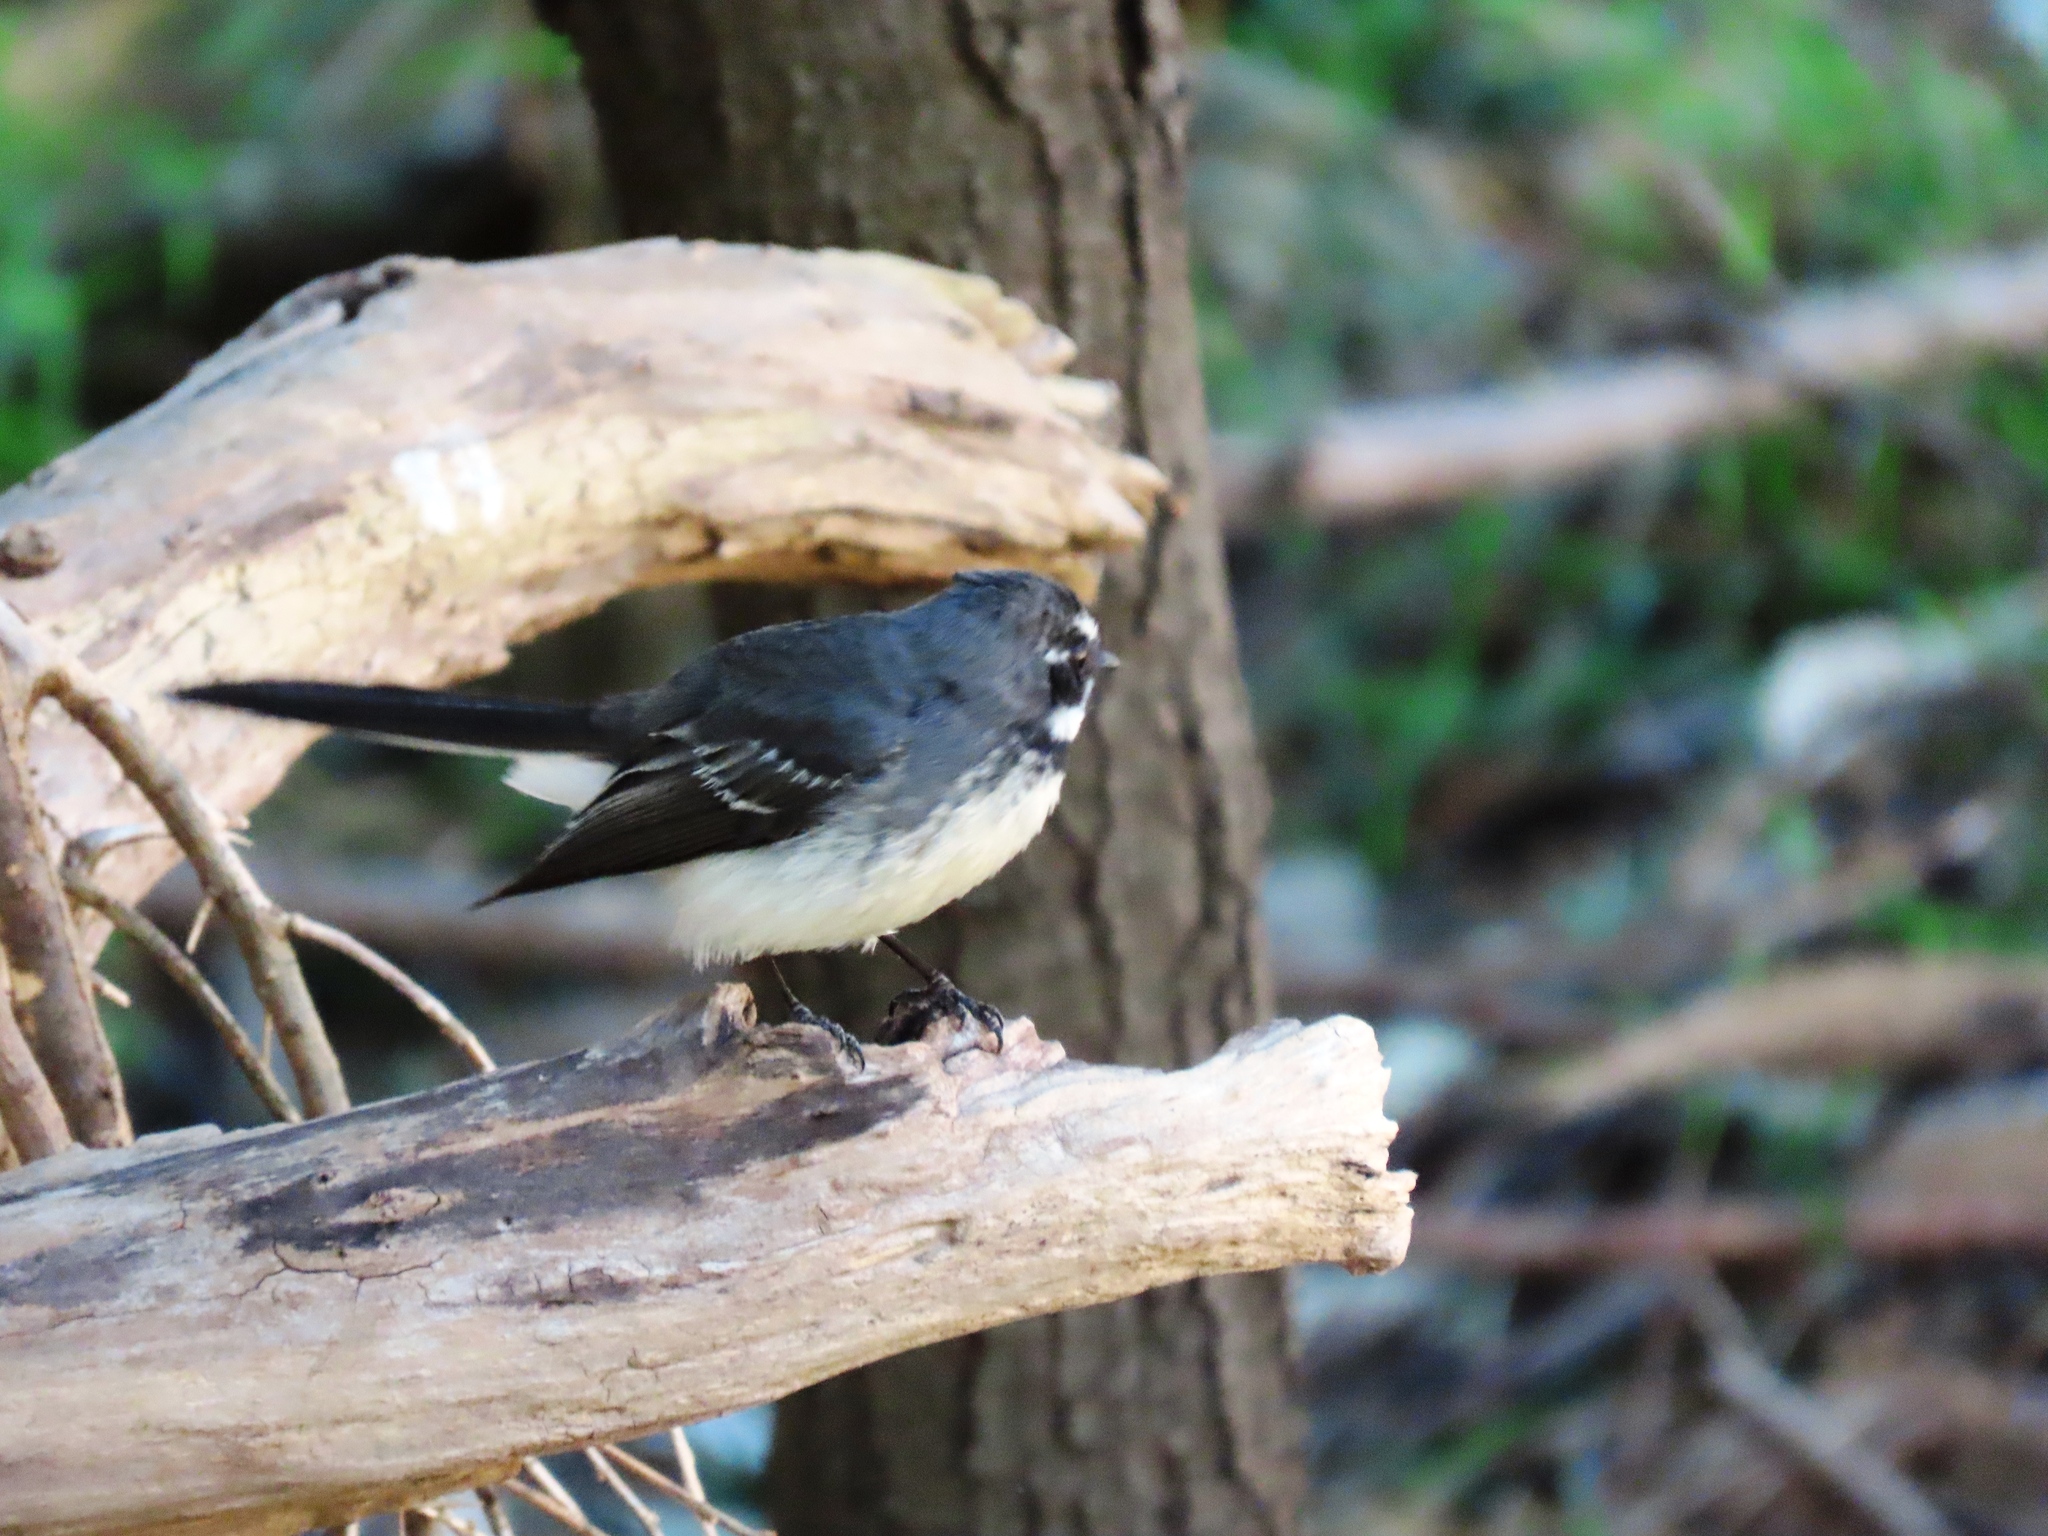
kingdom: Animalia
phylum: Chordata
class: Aves
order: Passeriformes
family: Rhipiduridae
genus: Rhipidura
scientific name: Rhipidura albiscapa
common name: Grey fantail
